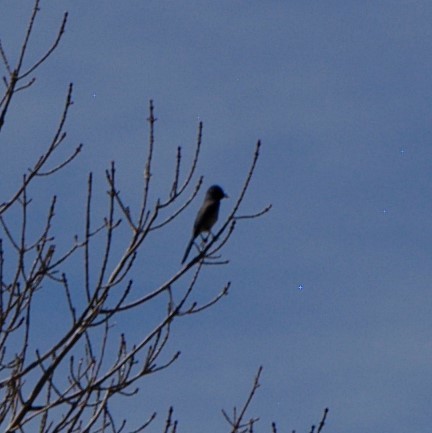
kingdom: Animalia
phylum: Chordata
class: Aves
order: Passeriformes
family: Corvidae
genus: Aphelocoma
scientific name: Aphelocoma woodhouseii
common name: Woodhouse's scrub-jay
